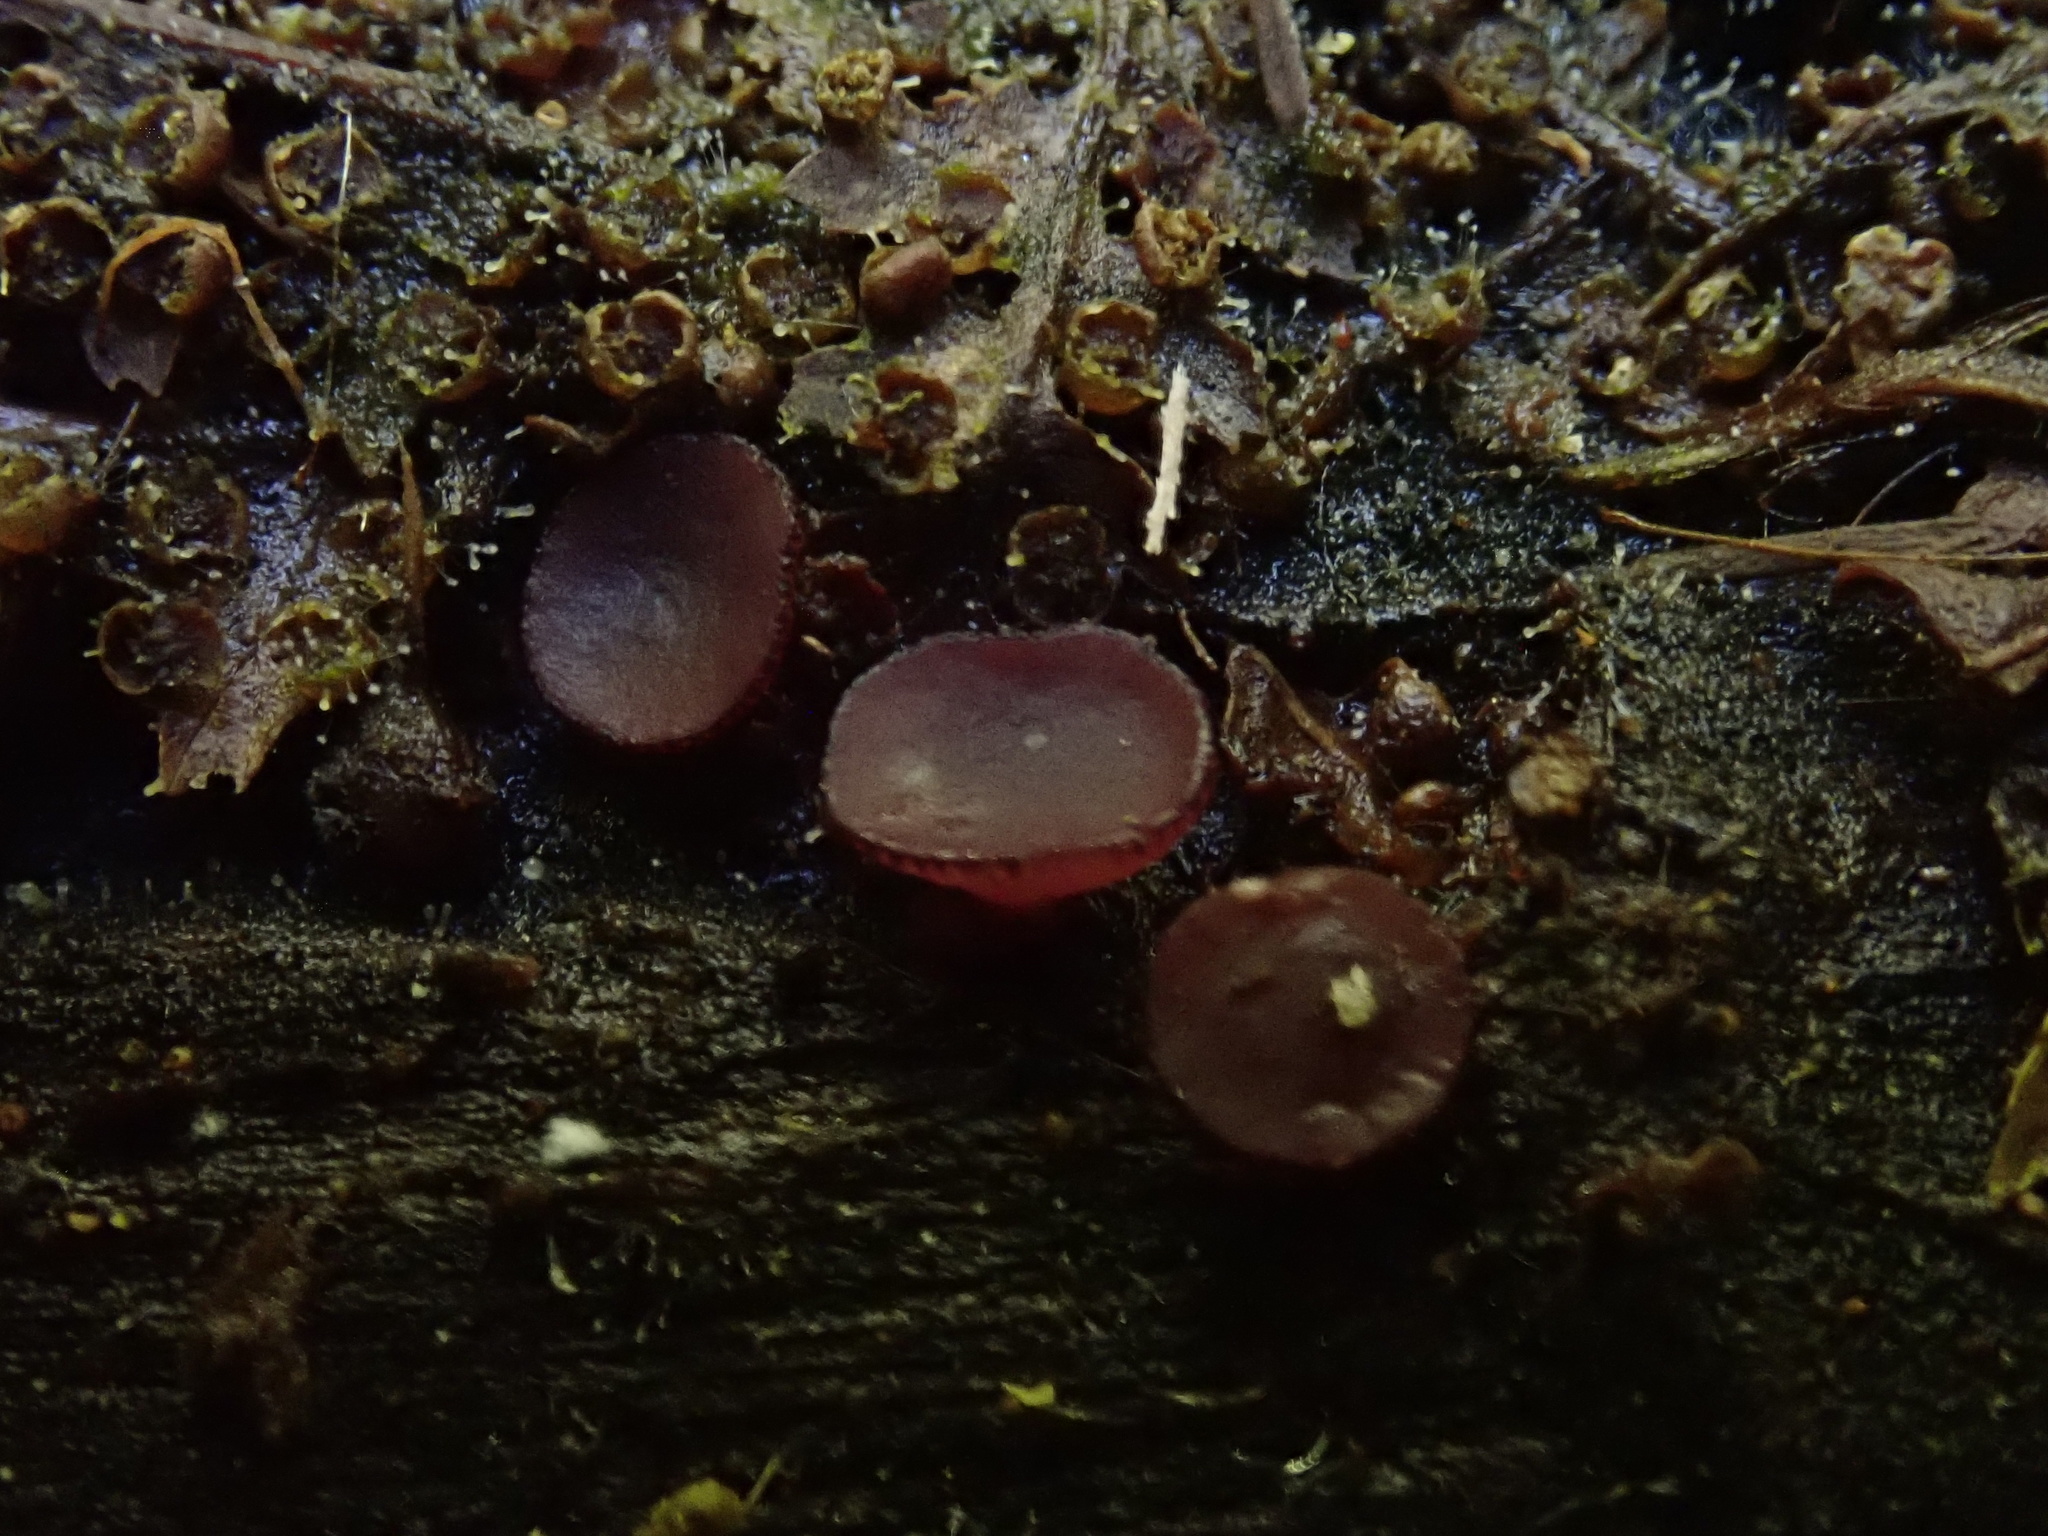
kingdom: Fungi
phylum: Ascomycota
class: Leotiomycetes
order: Helotiales
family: Gelatinodiscaceae
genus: Ascocoryne
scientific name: Ascocoryne sarcoides
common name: Purple jellydisc
